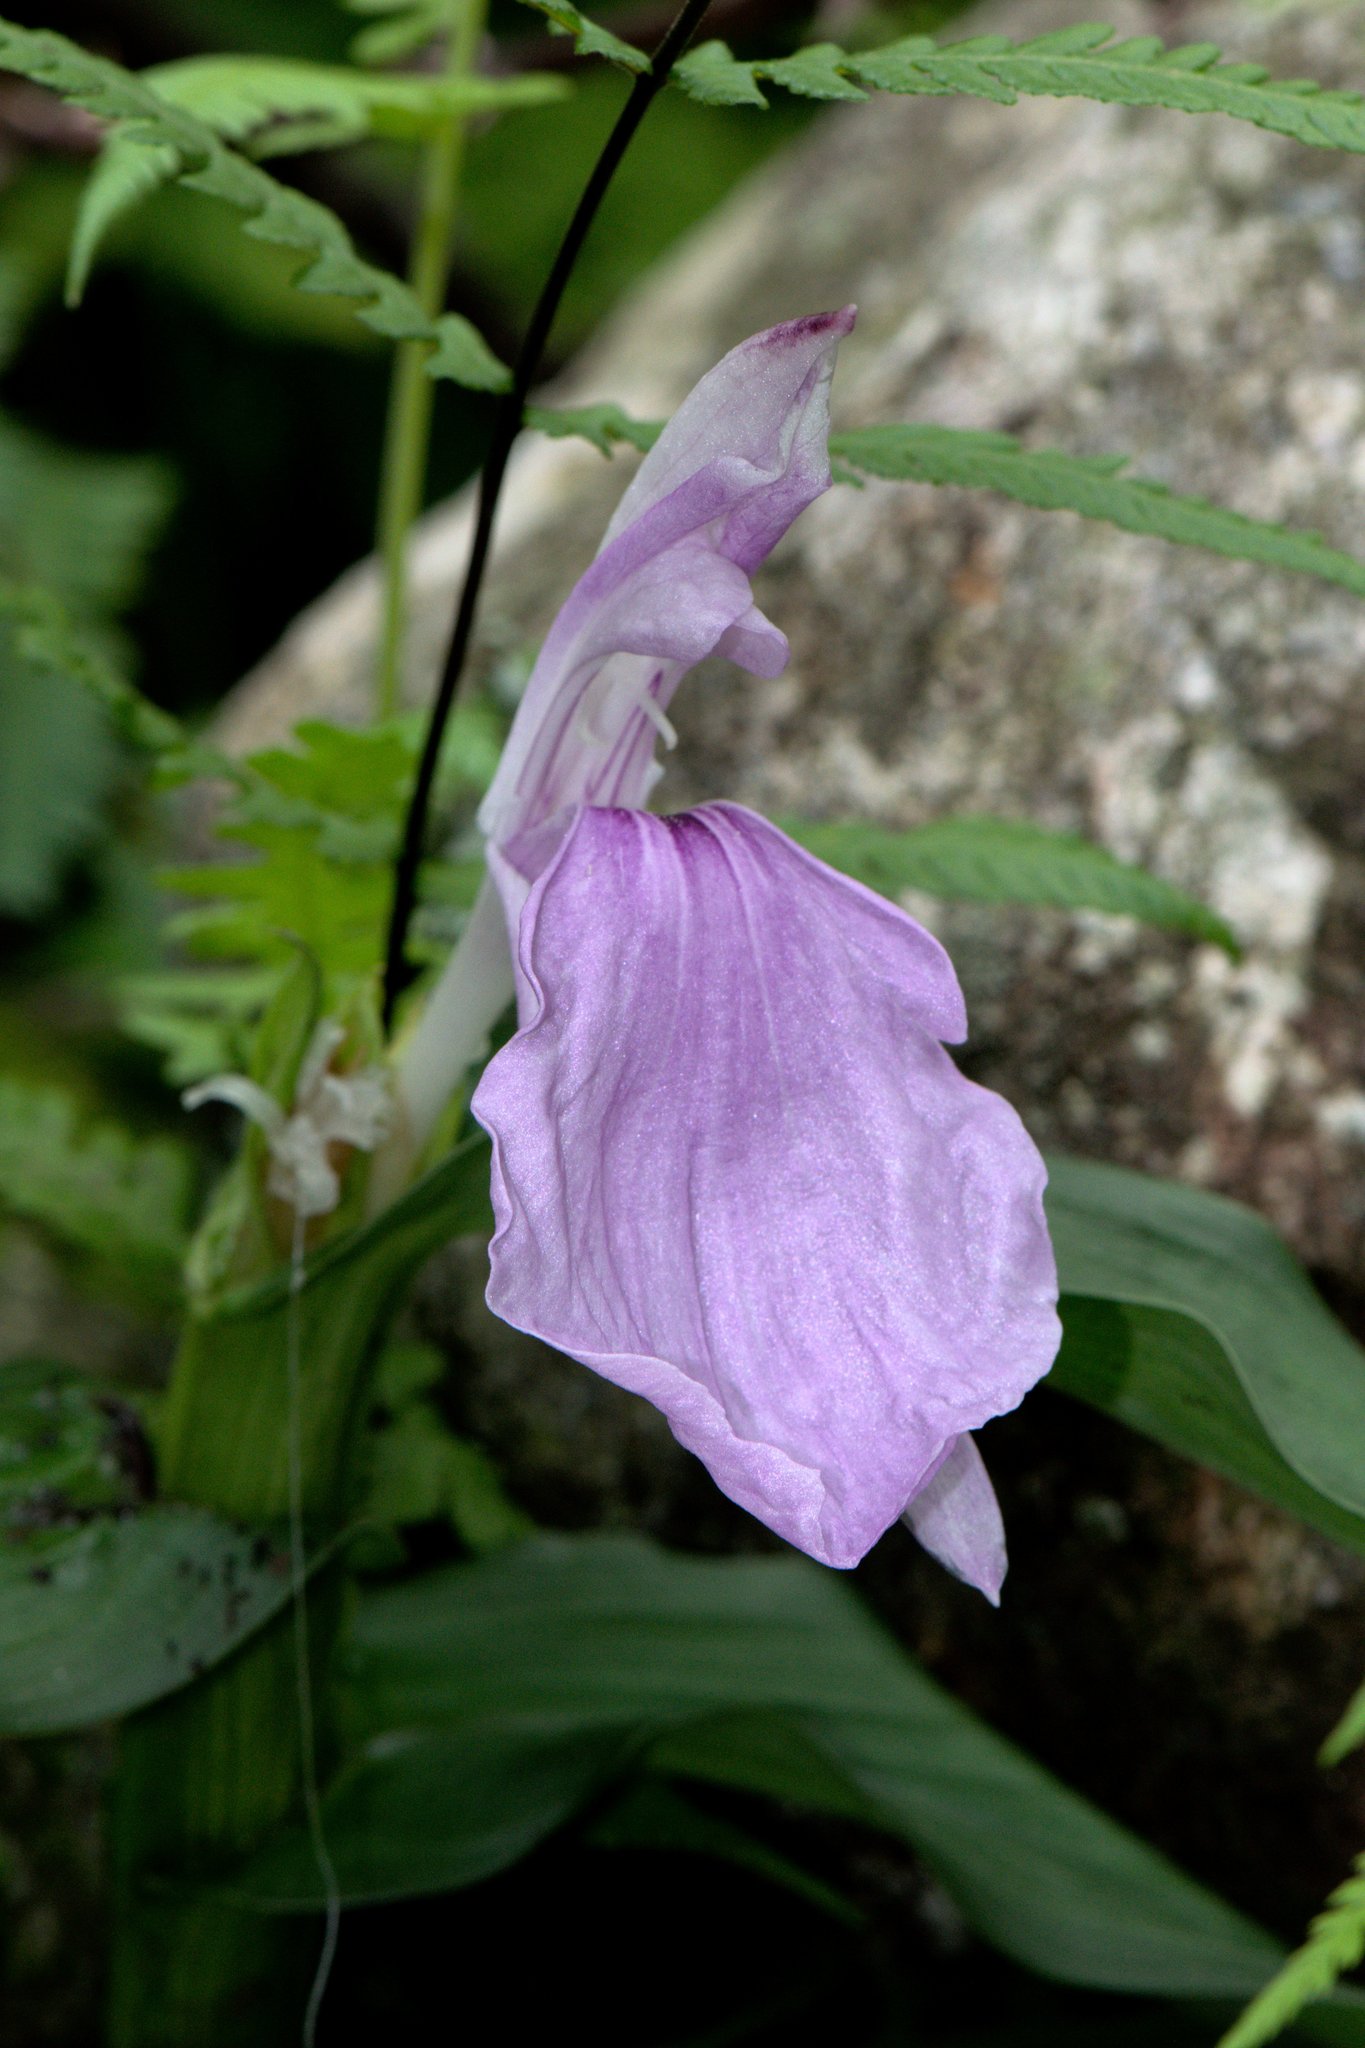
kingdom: Plantae
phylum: Tracheophyta
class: Liliopsida
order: Zingiberales
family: Zingiberaceae
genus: Roscoea
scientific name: Roscoea purpurea
